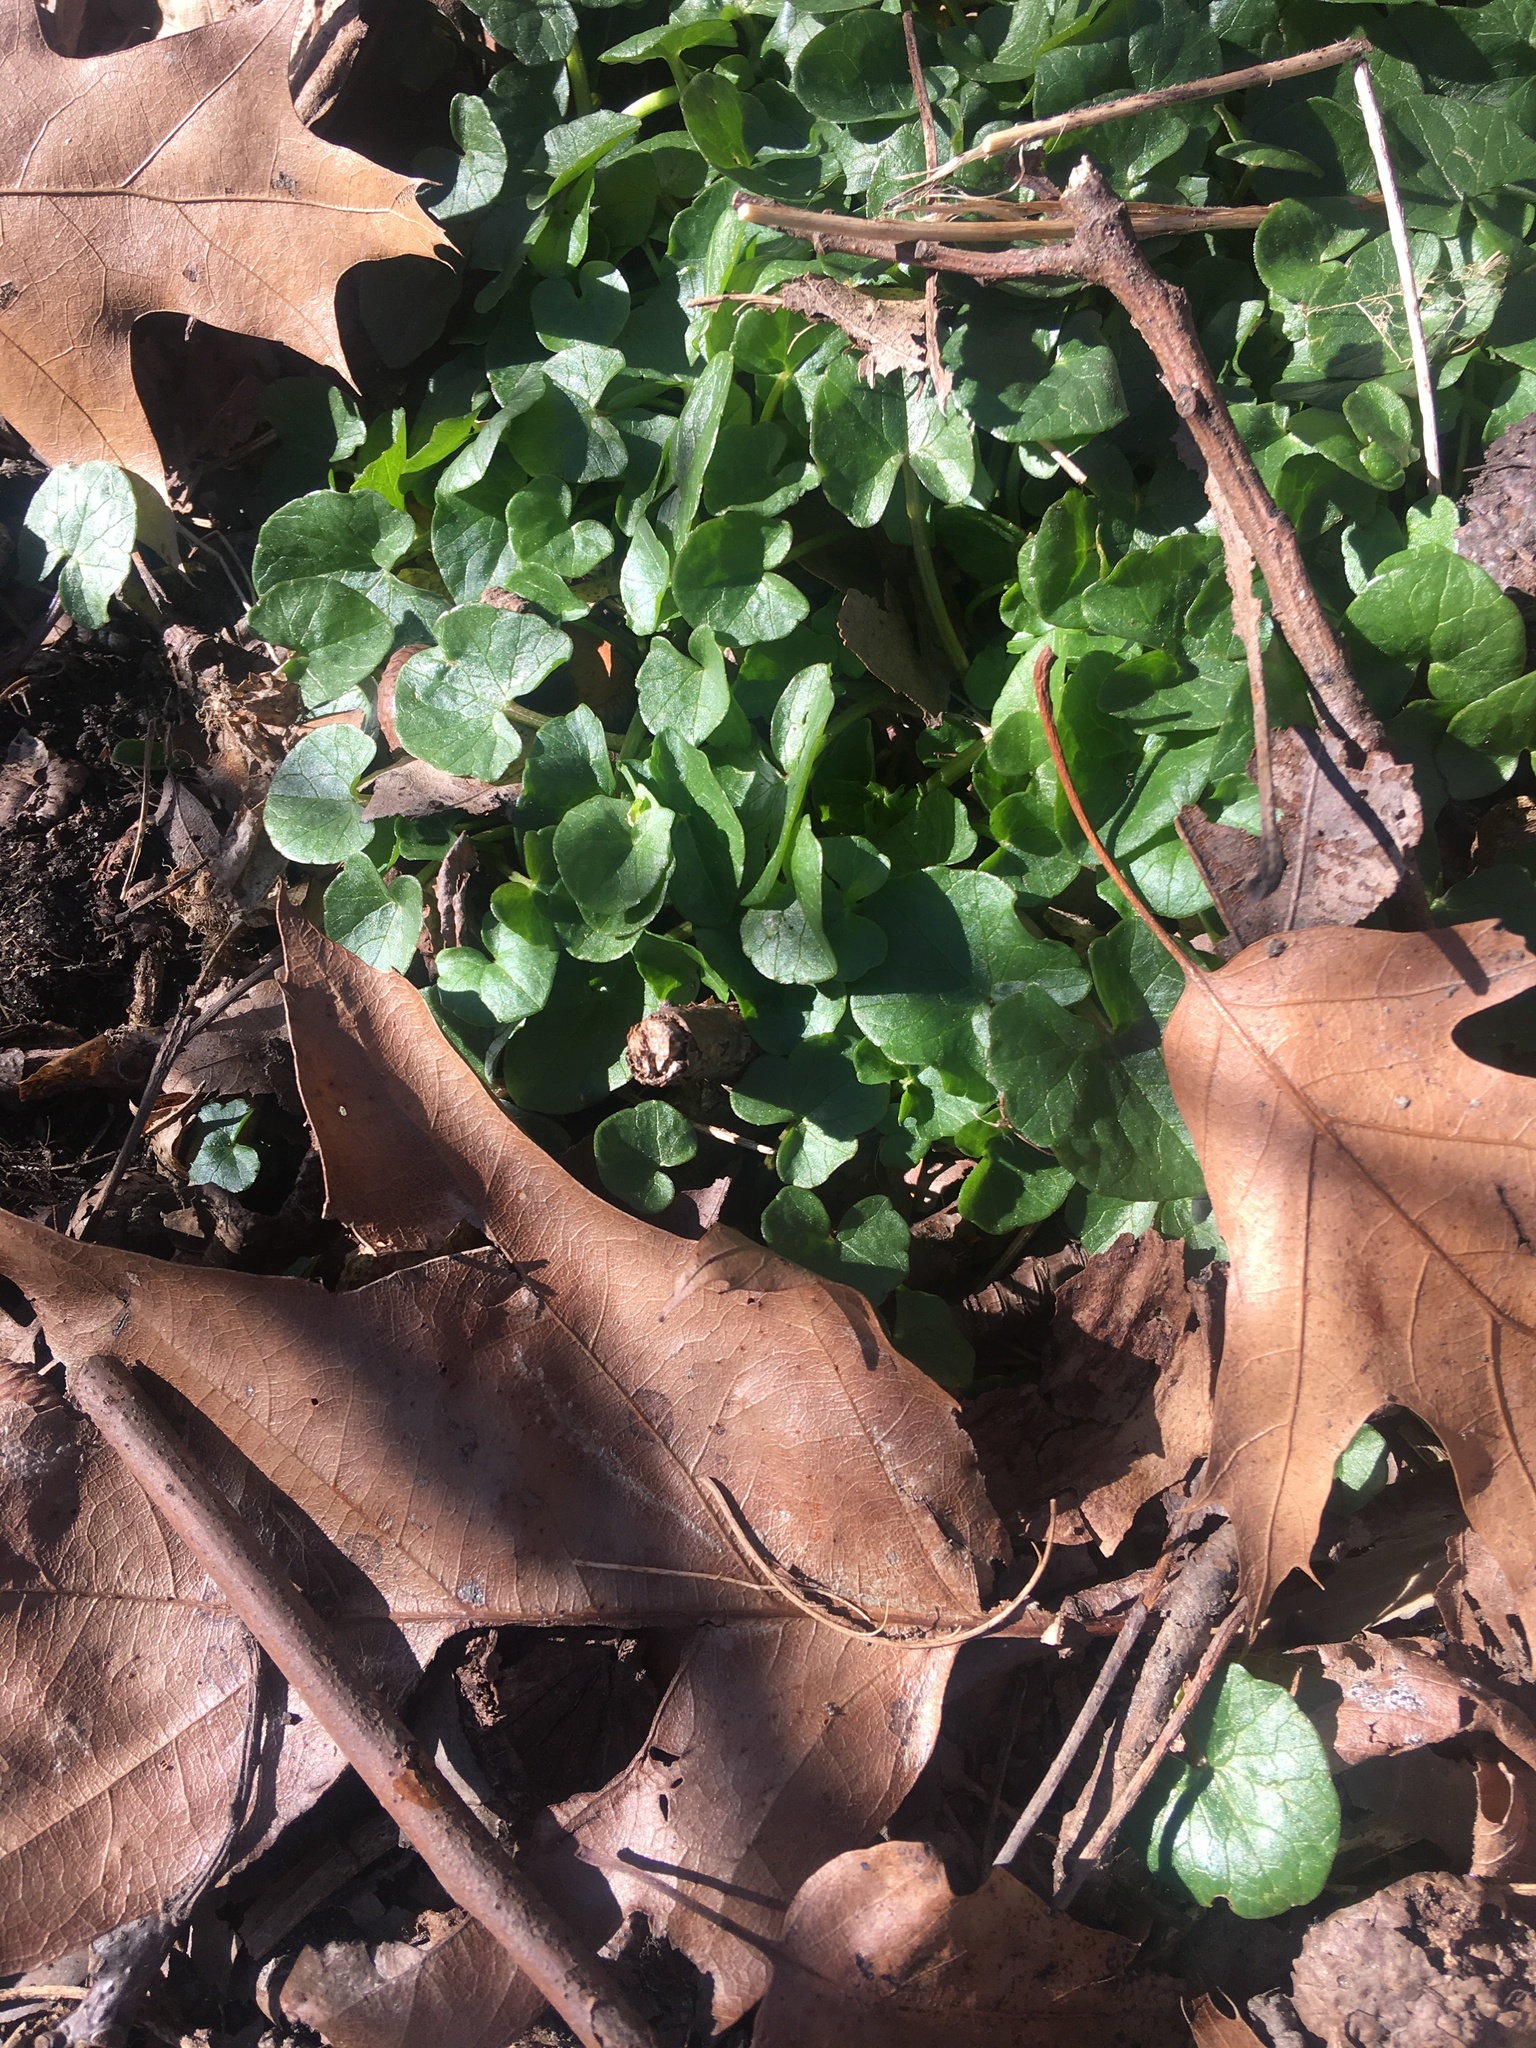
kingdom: Plantae
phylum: Tracheophyta
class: Magnoliopsida
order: Ranunculales
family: Ranunculaceae
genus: Ficaria
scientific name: Ficaria verna
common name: Lesser celandine
